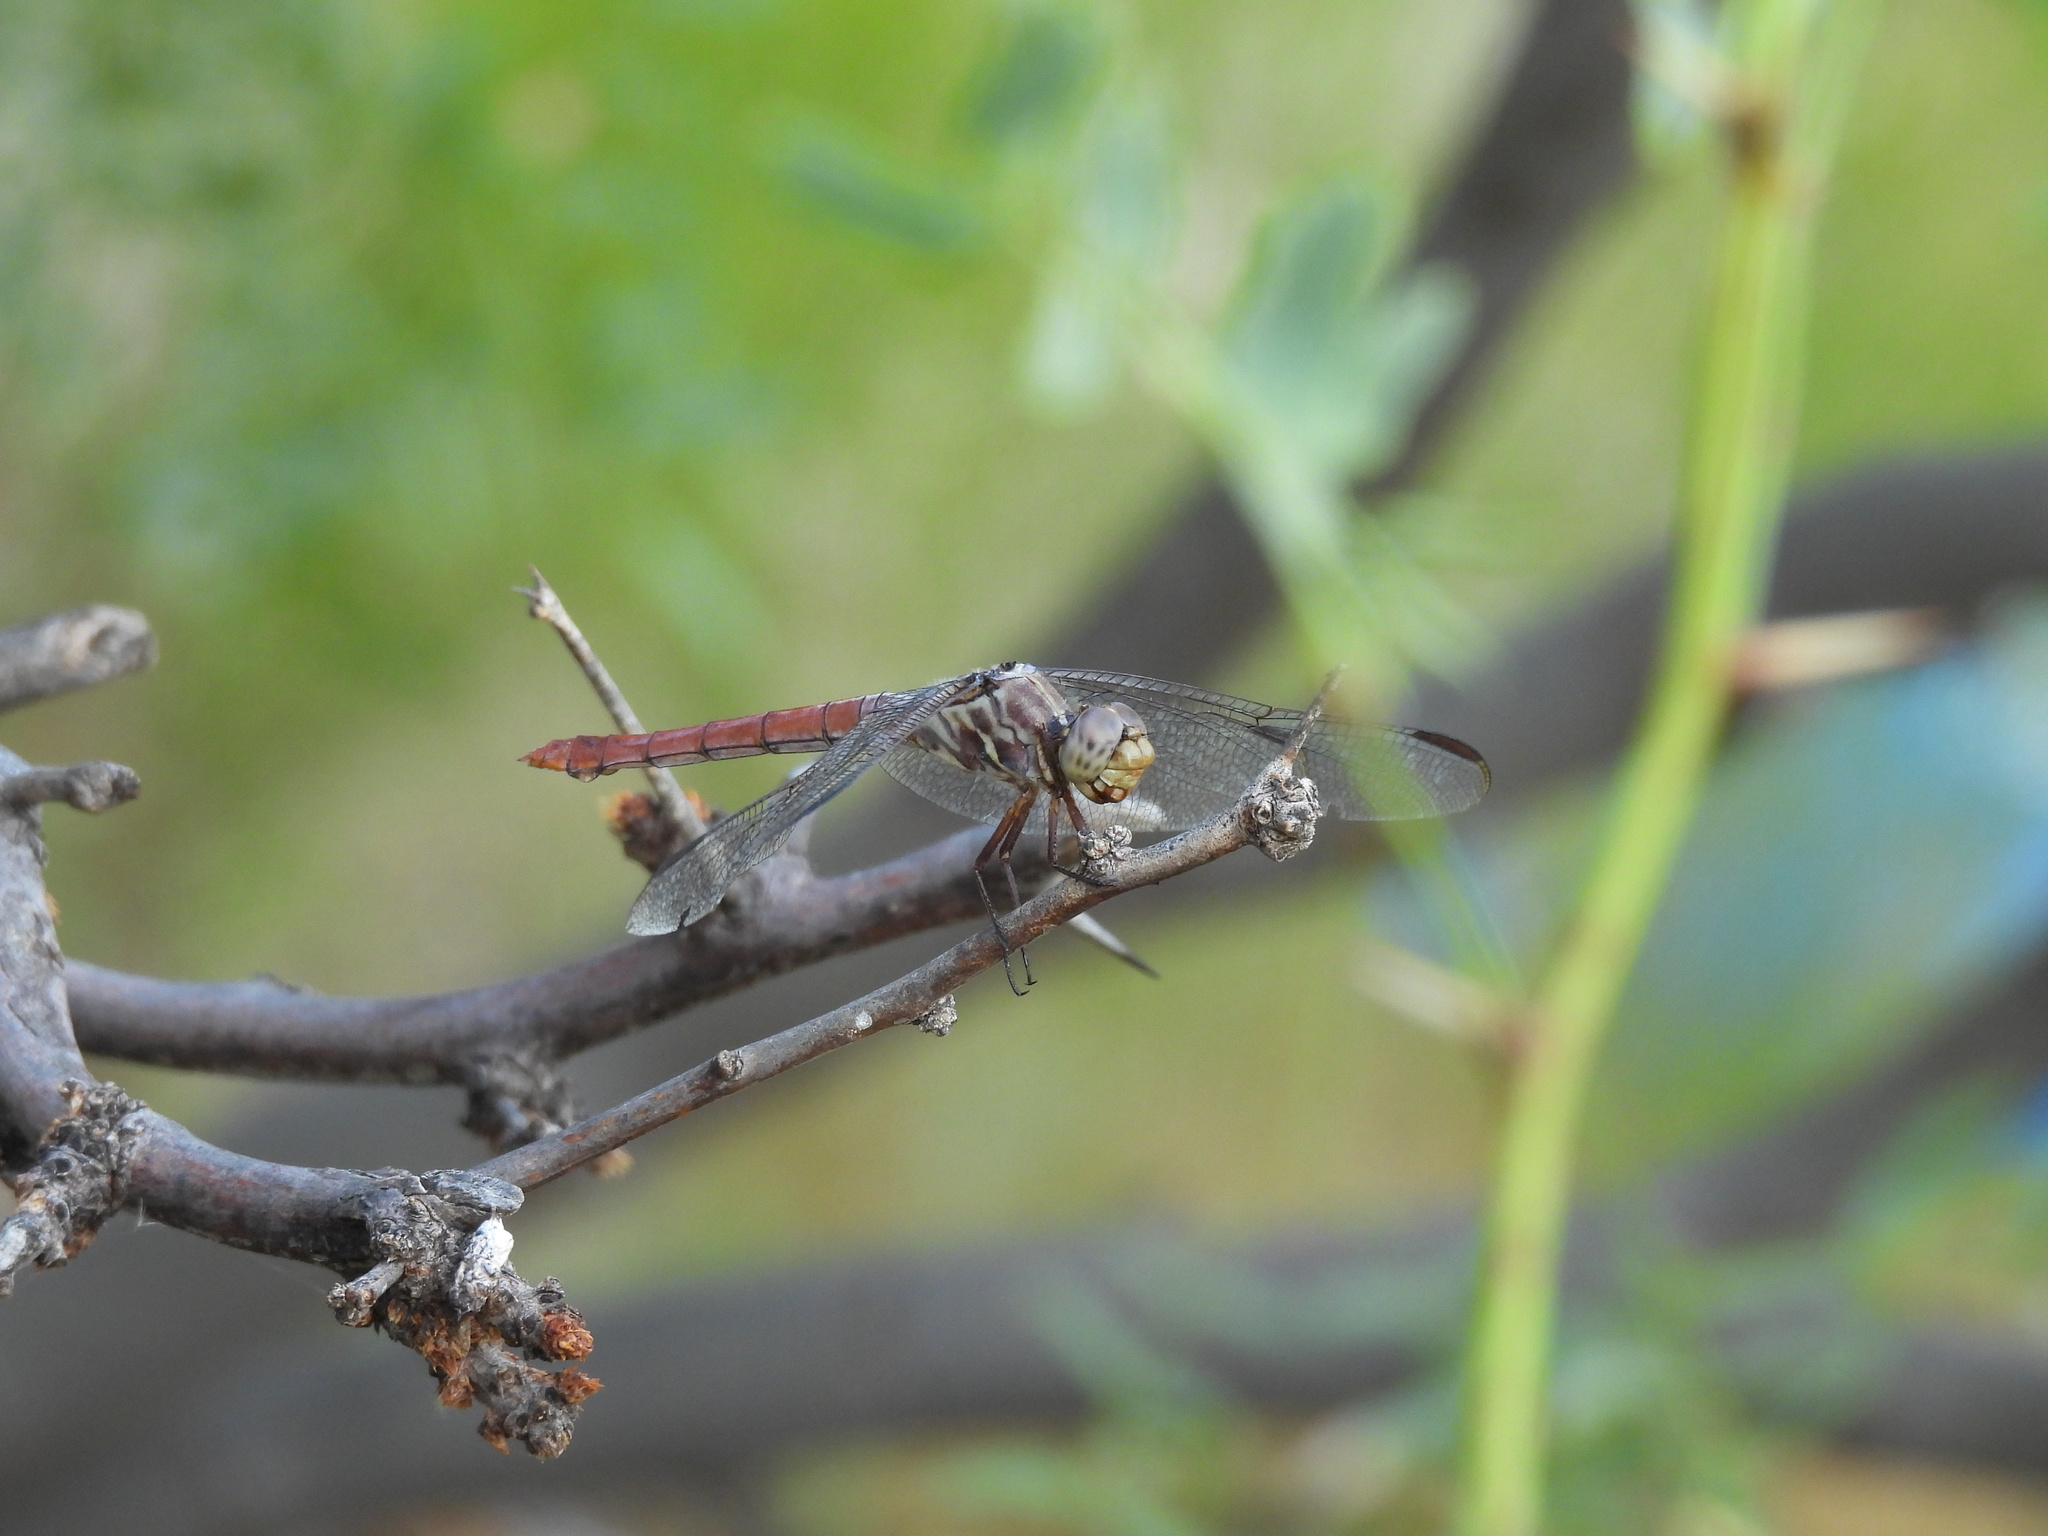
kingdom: Animalia
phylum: Arthropoda
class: Insecta
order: Odonata
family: Libellulidae
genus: Orthemis
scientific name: Orthemis ferruginea
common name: Roseate skimmer
